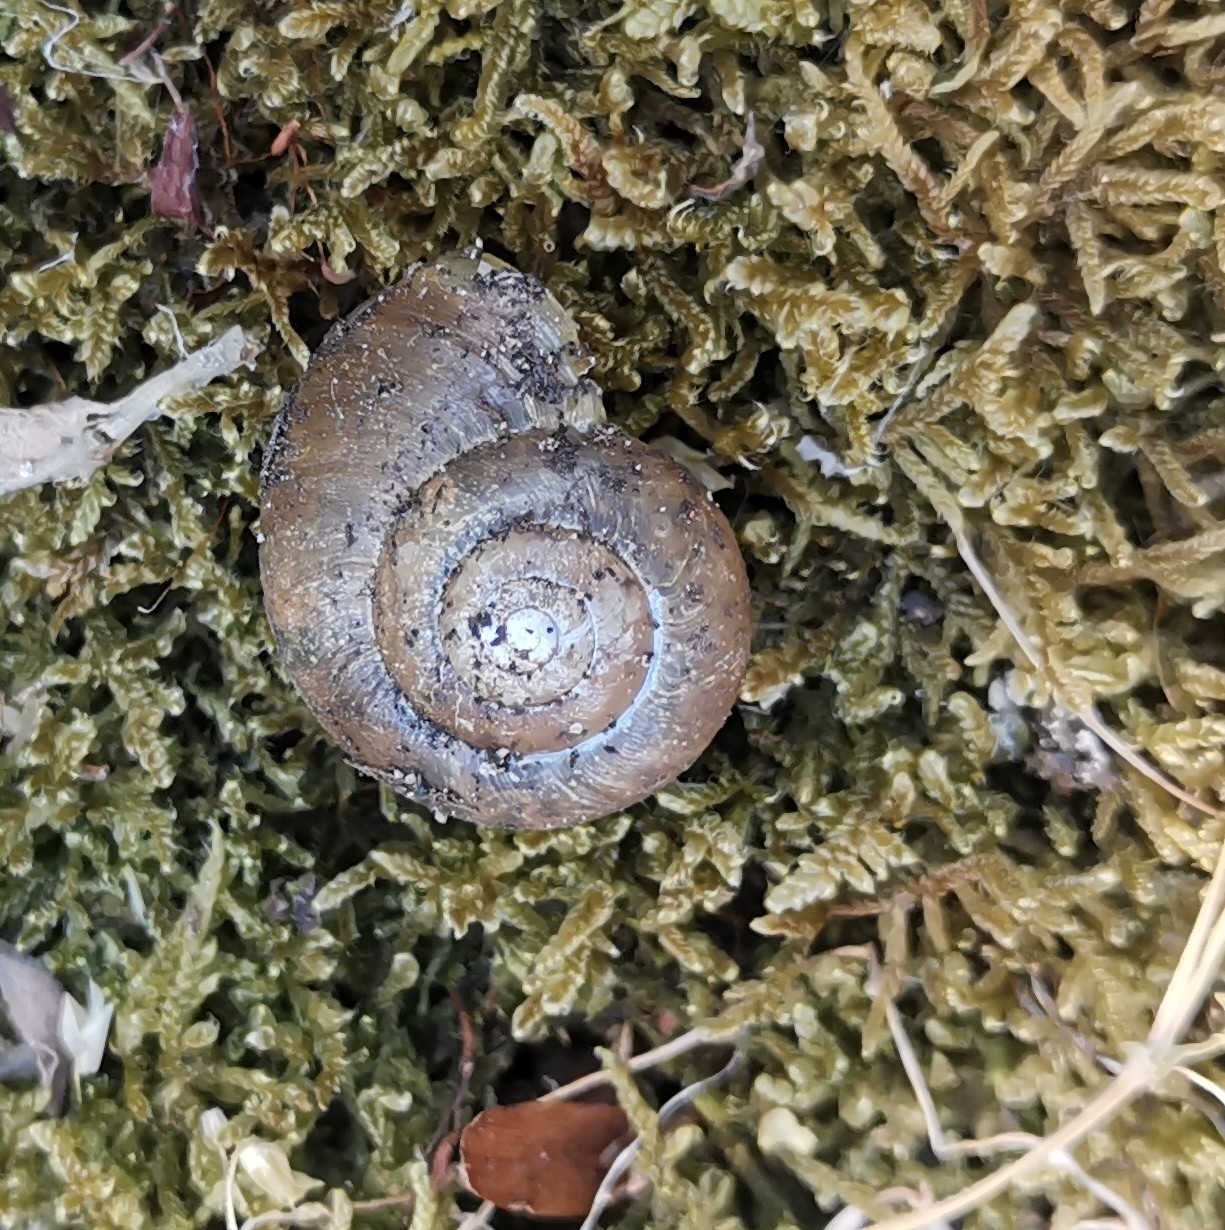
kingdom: Animalia
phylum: Mollusca
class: Gastropoda
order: Stylommatophora
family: Gastrodontidae
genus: Retinella
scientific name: Retinella olivetorum
